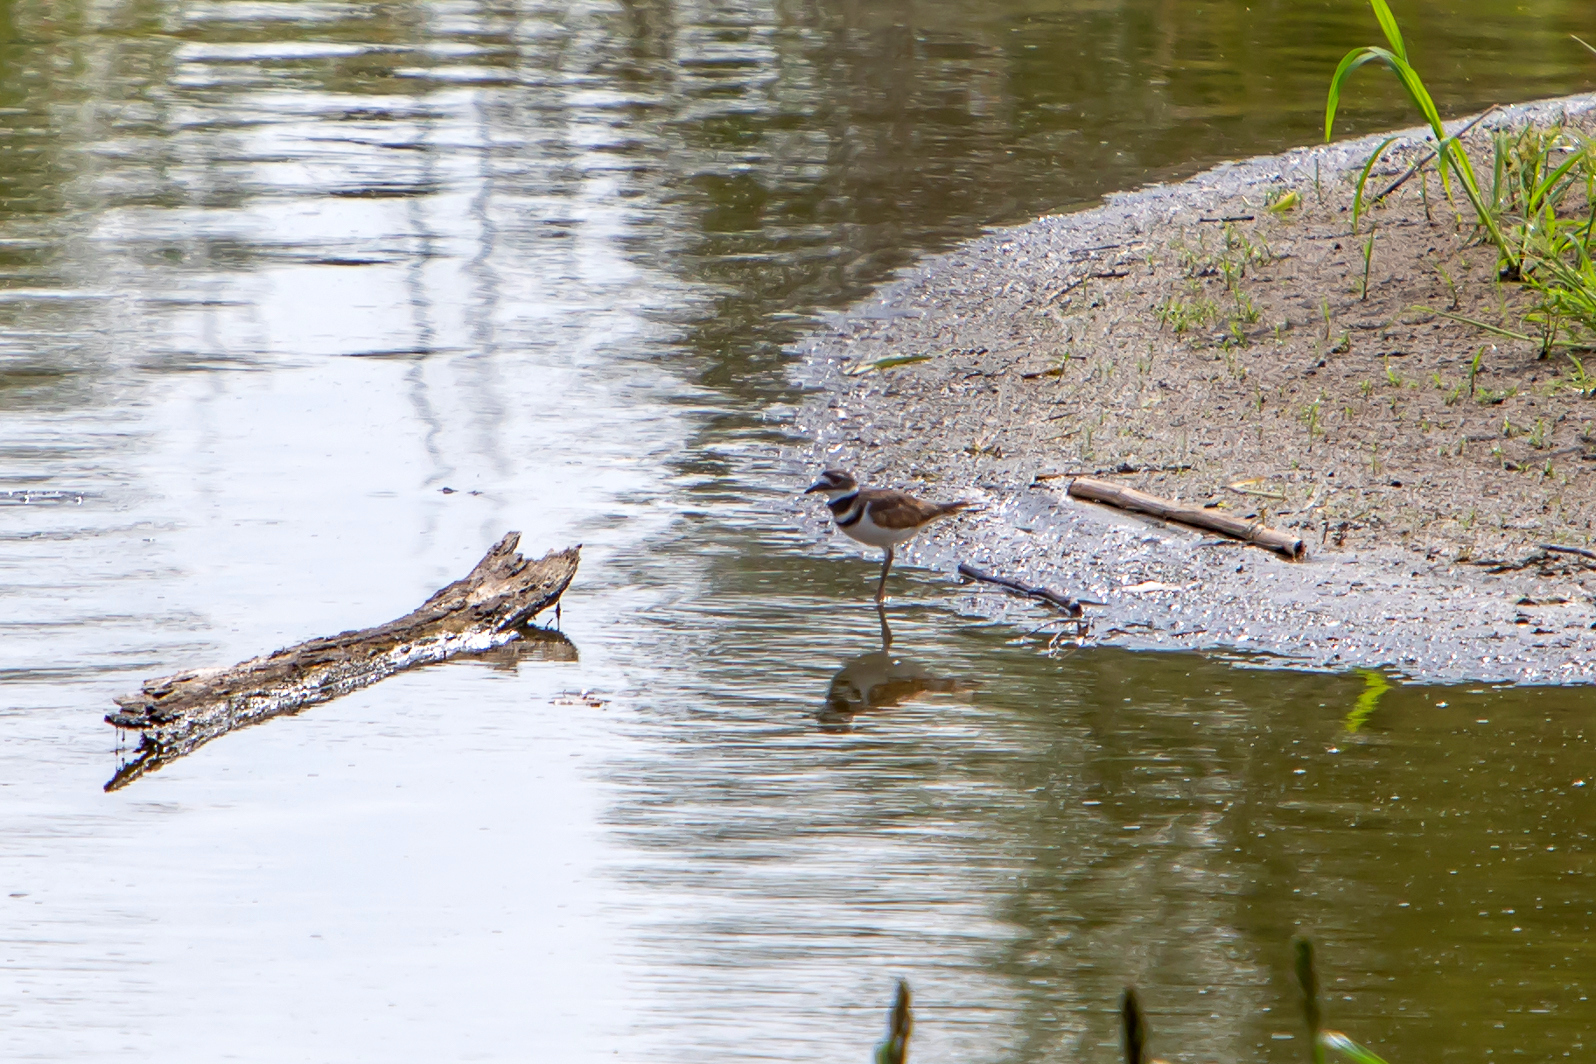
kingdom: Animalia
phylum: Chordata
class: Aves
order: Charadriiformes
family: Charadriidae
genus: Charadrius
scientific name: Charadrius vociferus
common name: Killdeer
